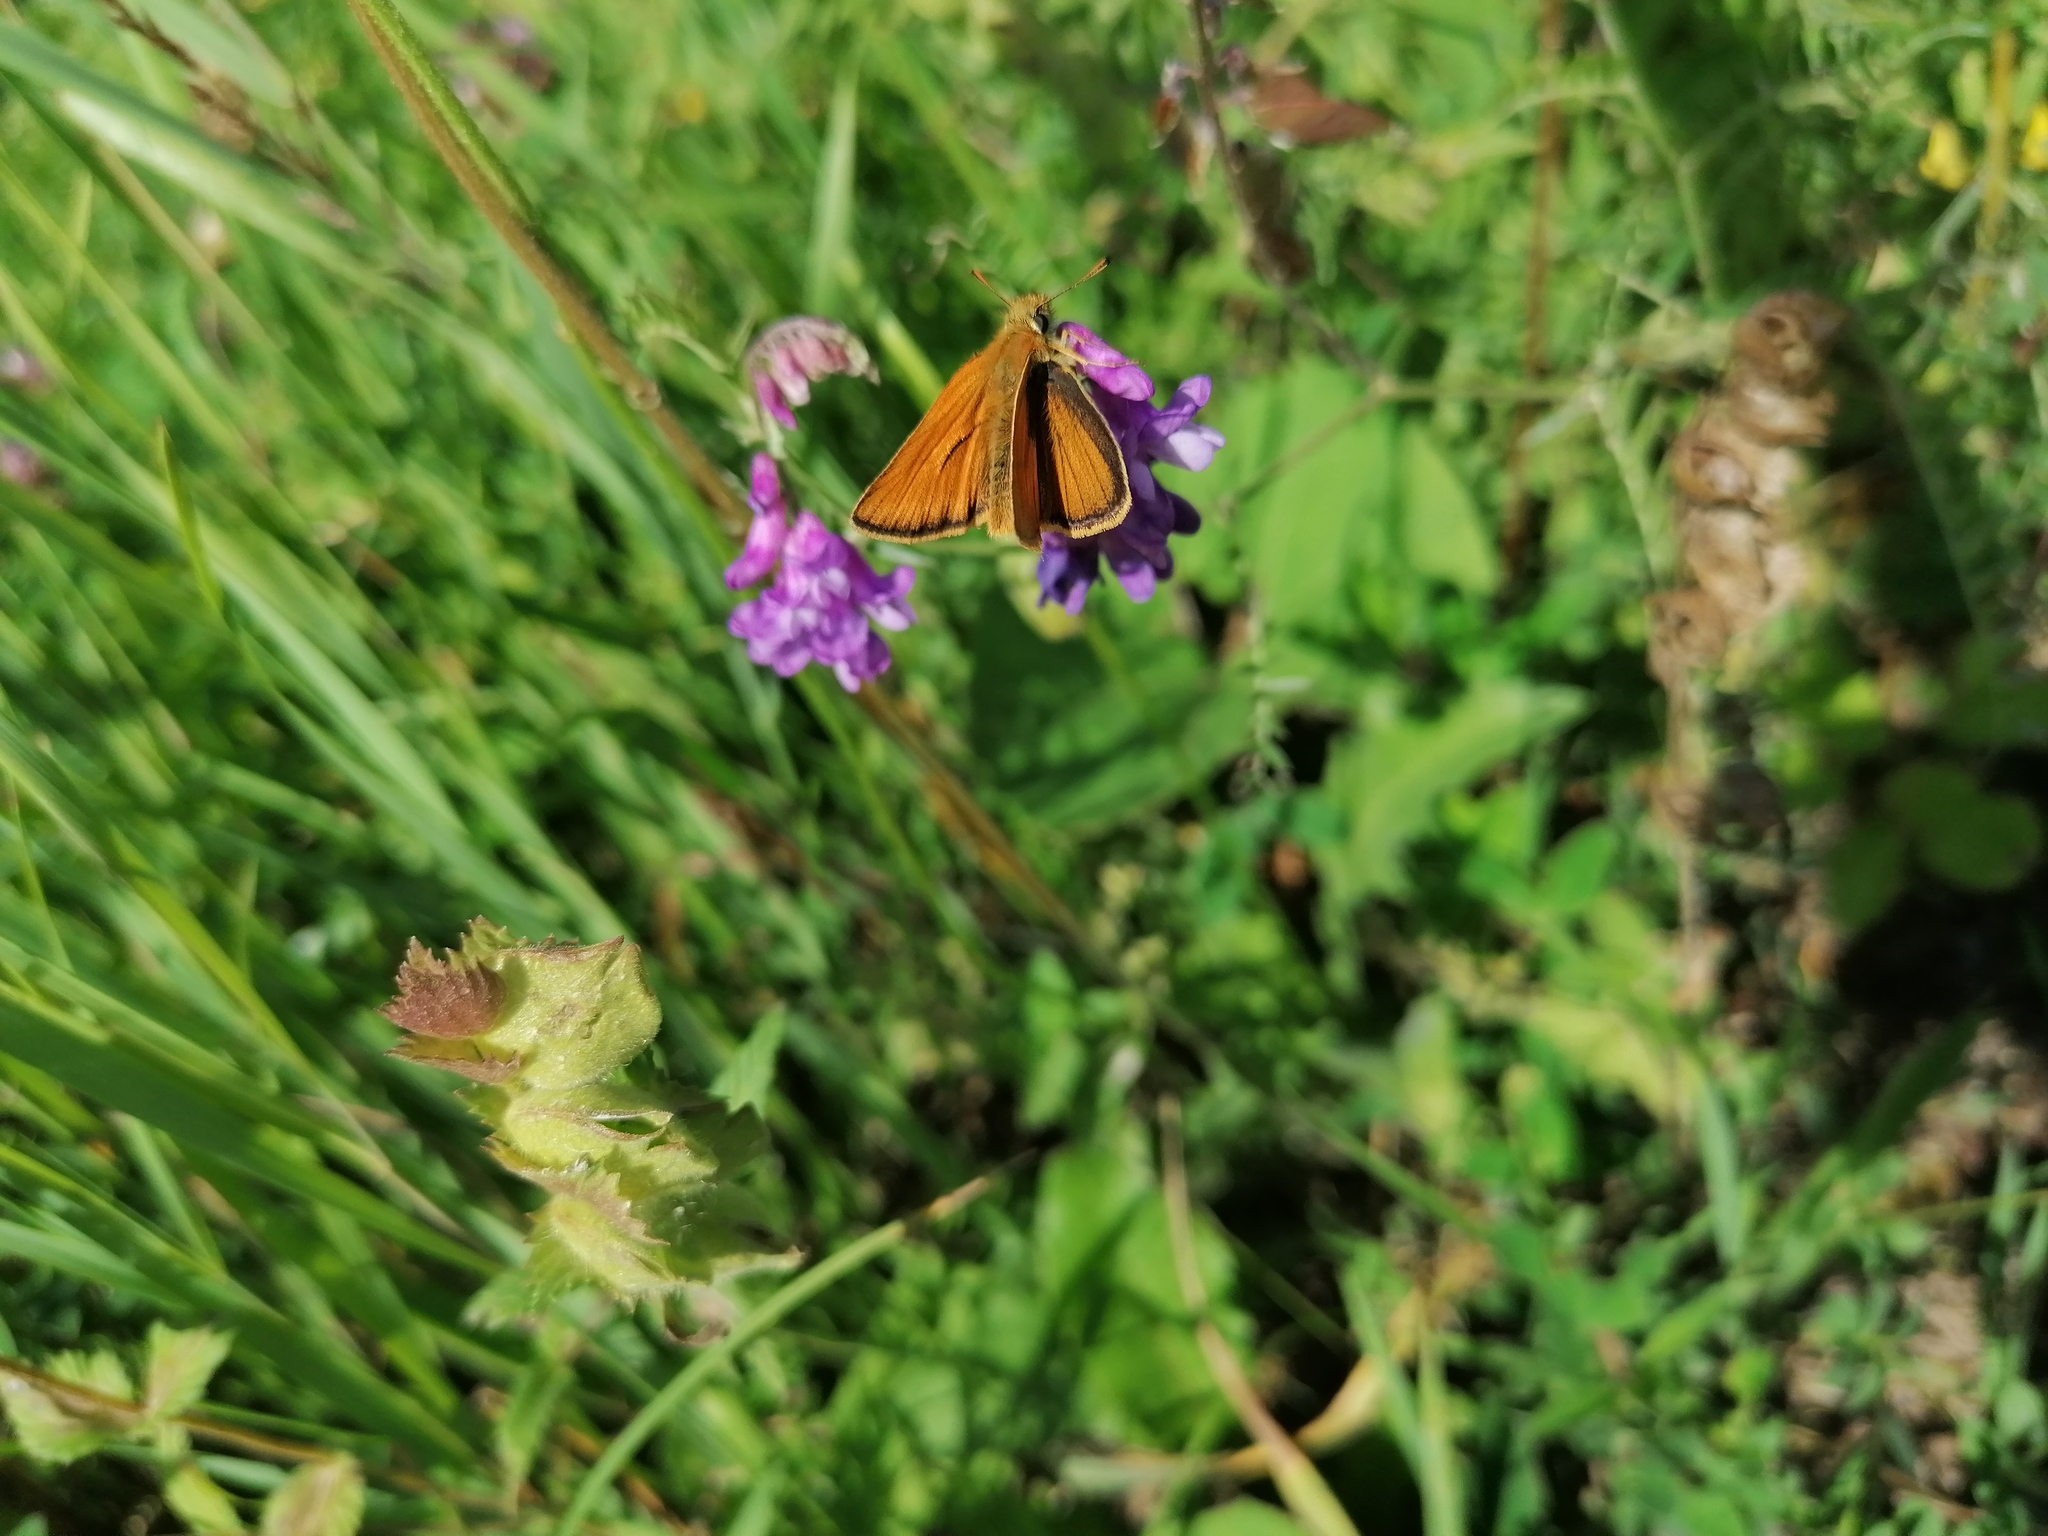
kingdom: Animalia
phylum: Arthropoda
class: Insecta
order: Lepidoptera
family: Hesperiidae
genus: Thymelicus
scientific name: Thymelicus sylvestris
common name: Small skipper
